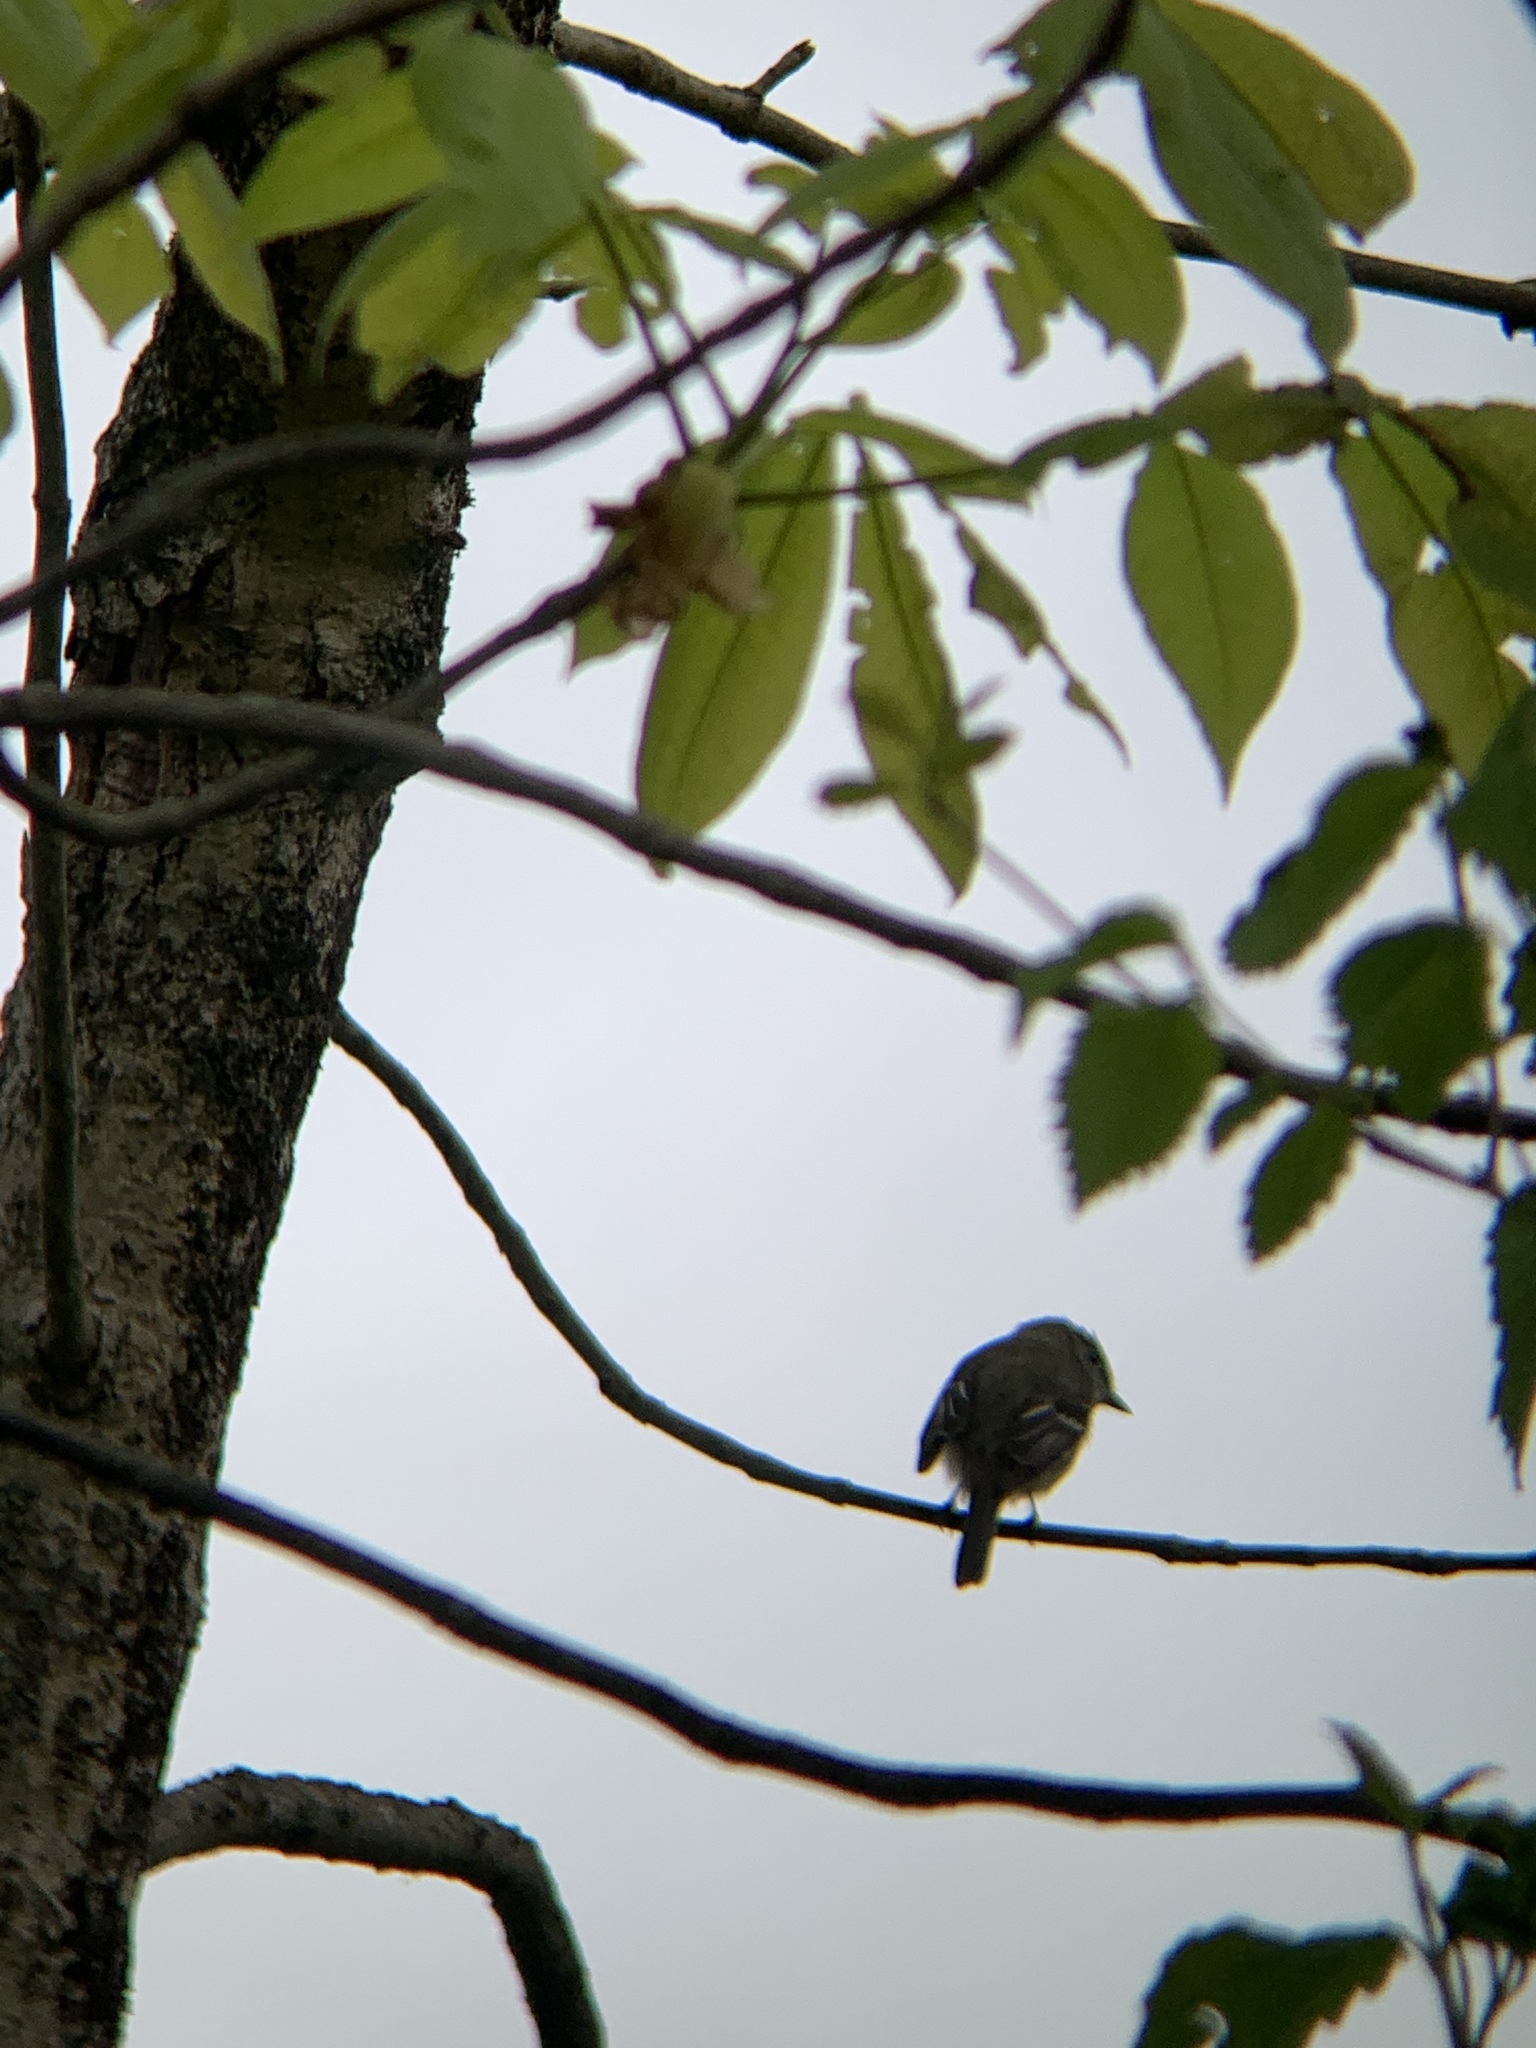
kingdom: Animalia
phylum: Chordata
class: Aves
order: Passeriformes
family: Regulidae
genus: Regulus
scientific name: Regulus calendula
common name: Ruby-crowned kinglet
